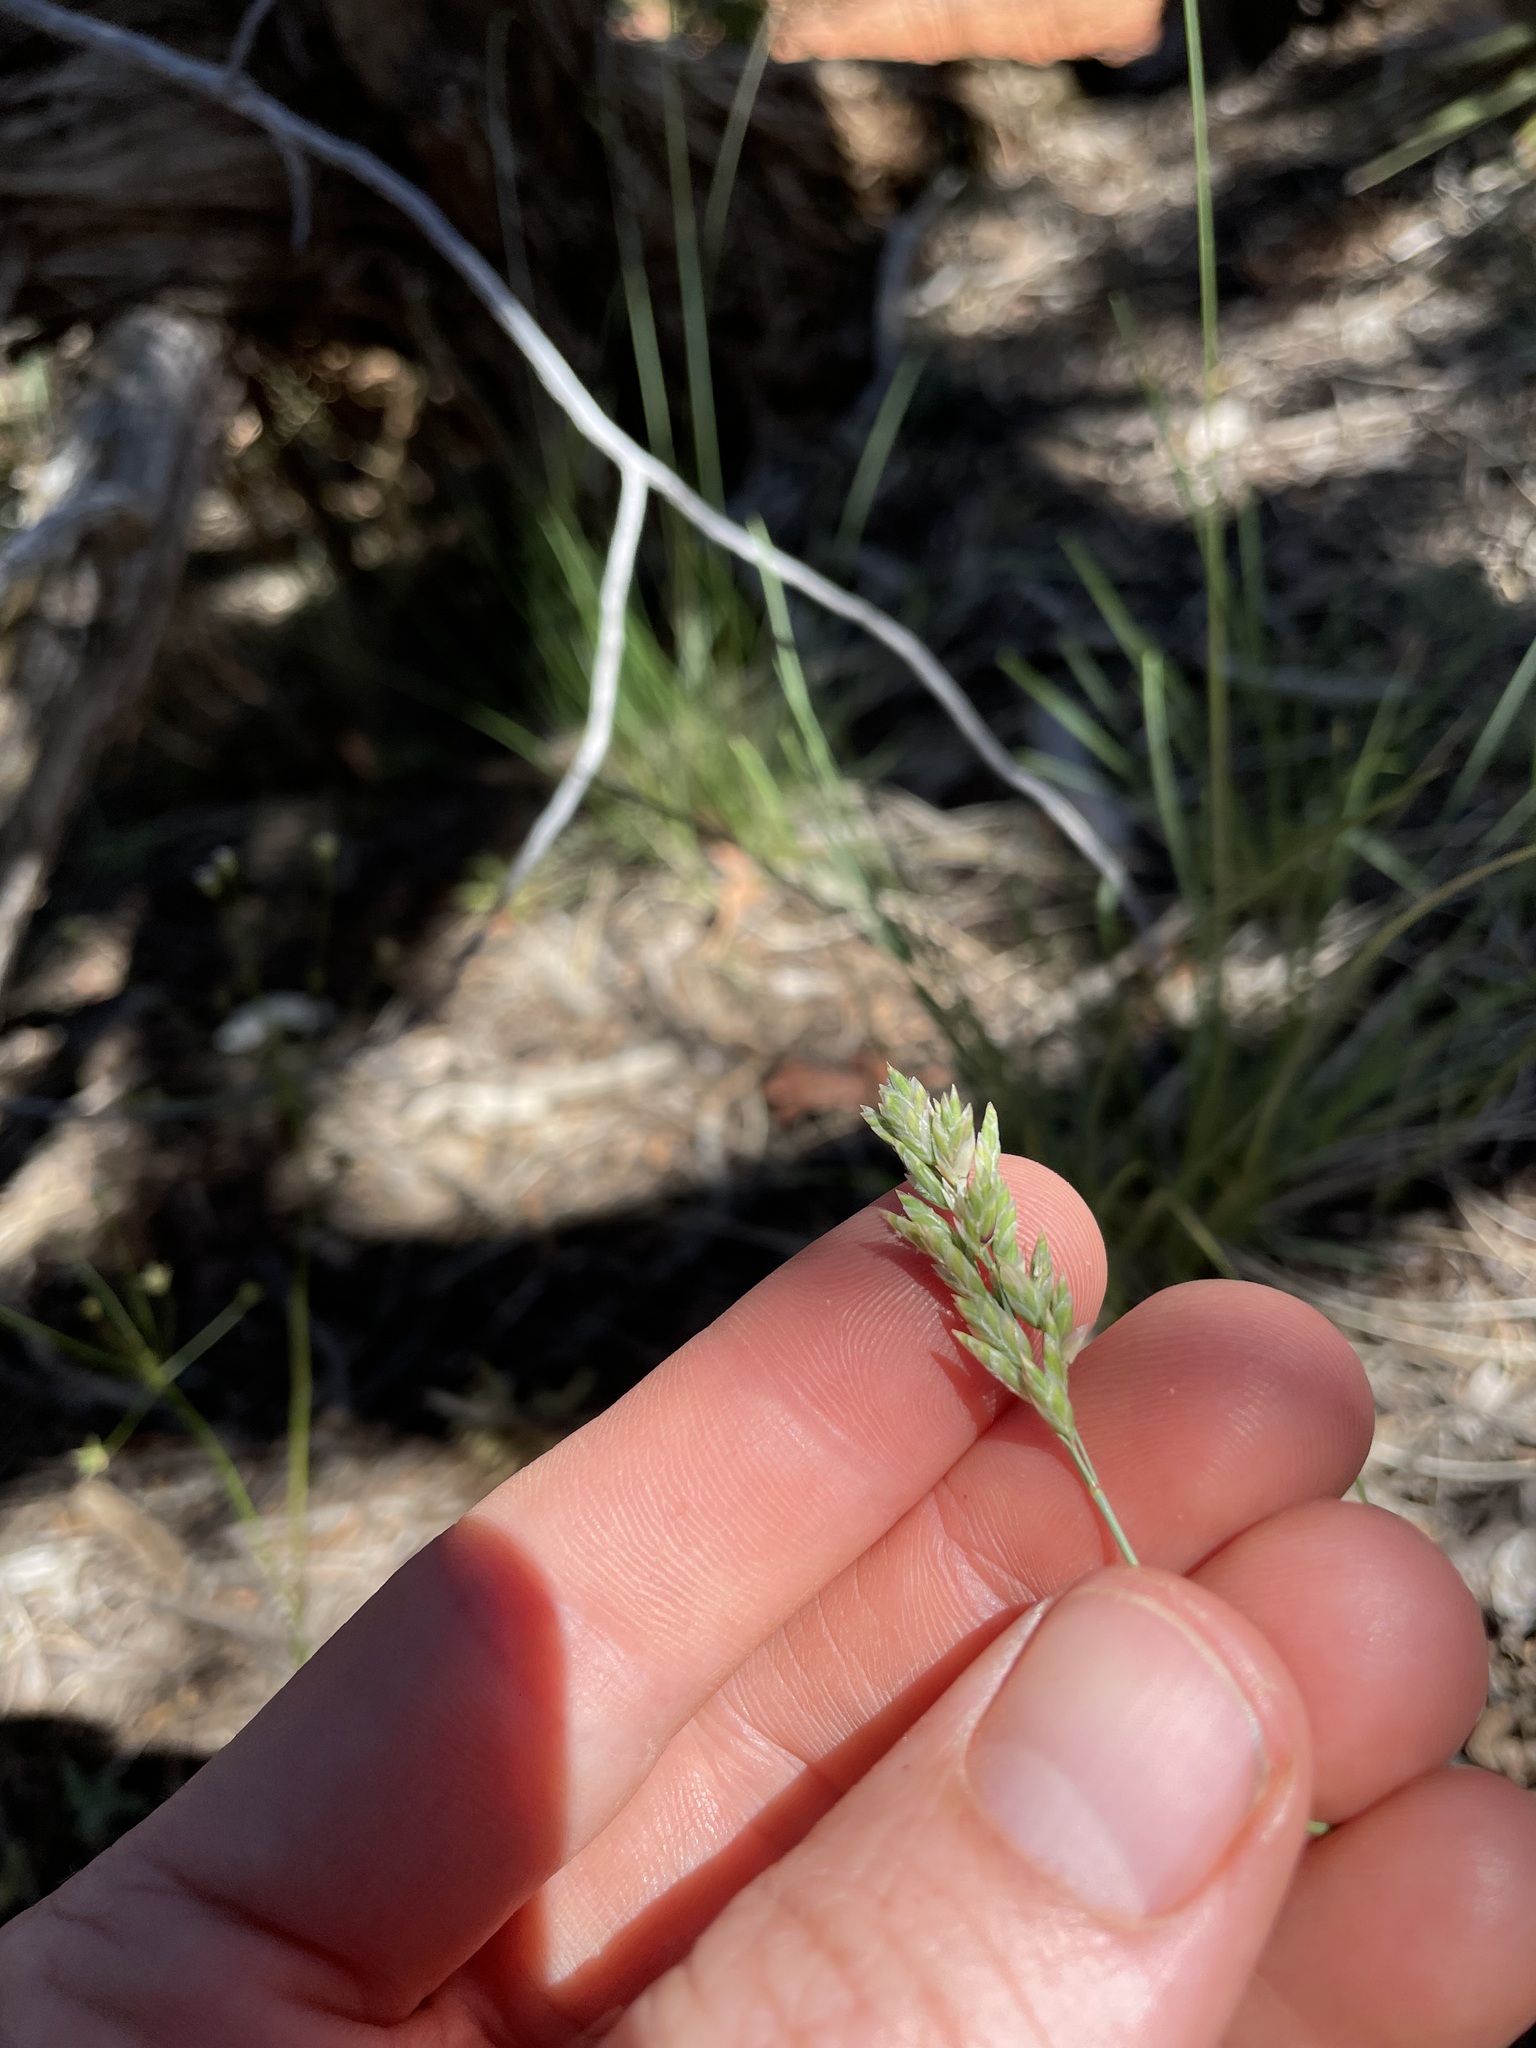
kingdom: Plantae
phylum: Tracheophyta
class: Liliopsida
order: Poales
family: Poaceae
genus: Poa
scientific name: Poa fendleriana
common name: Mutton bluegrass
